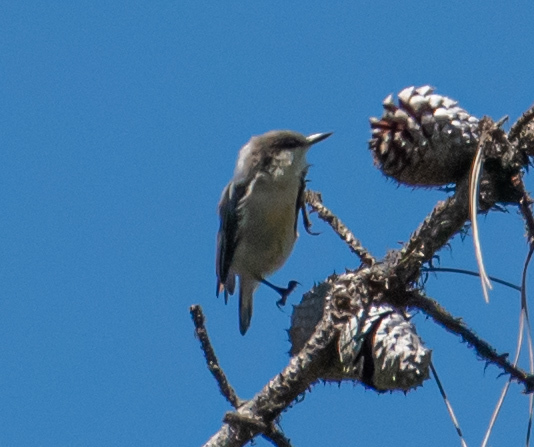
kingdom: Animalia
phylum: Chordata
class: Aves
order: Passeriformes
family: Sittidae
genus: Sitta
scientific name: Sitta pygmaea
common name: Pygmy nuthatch
